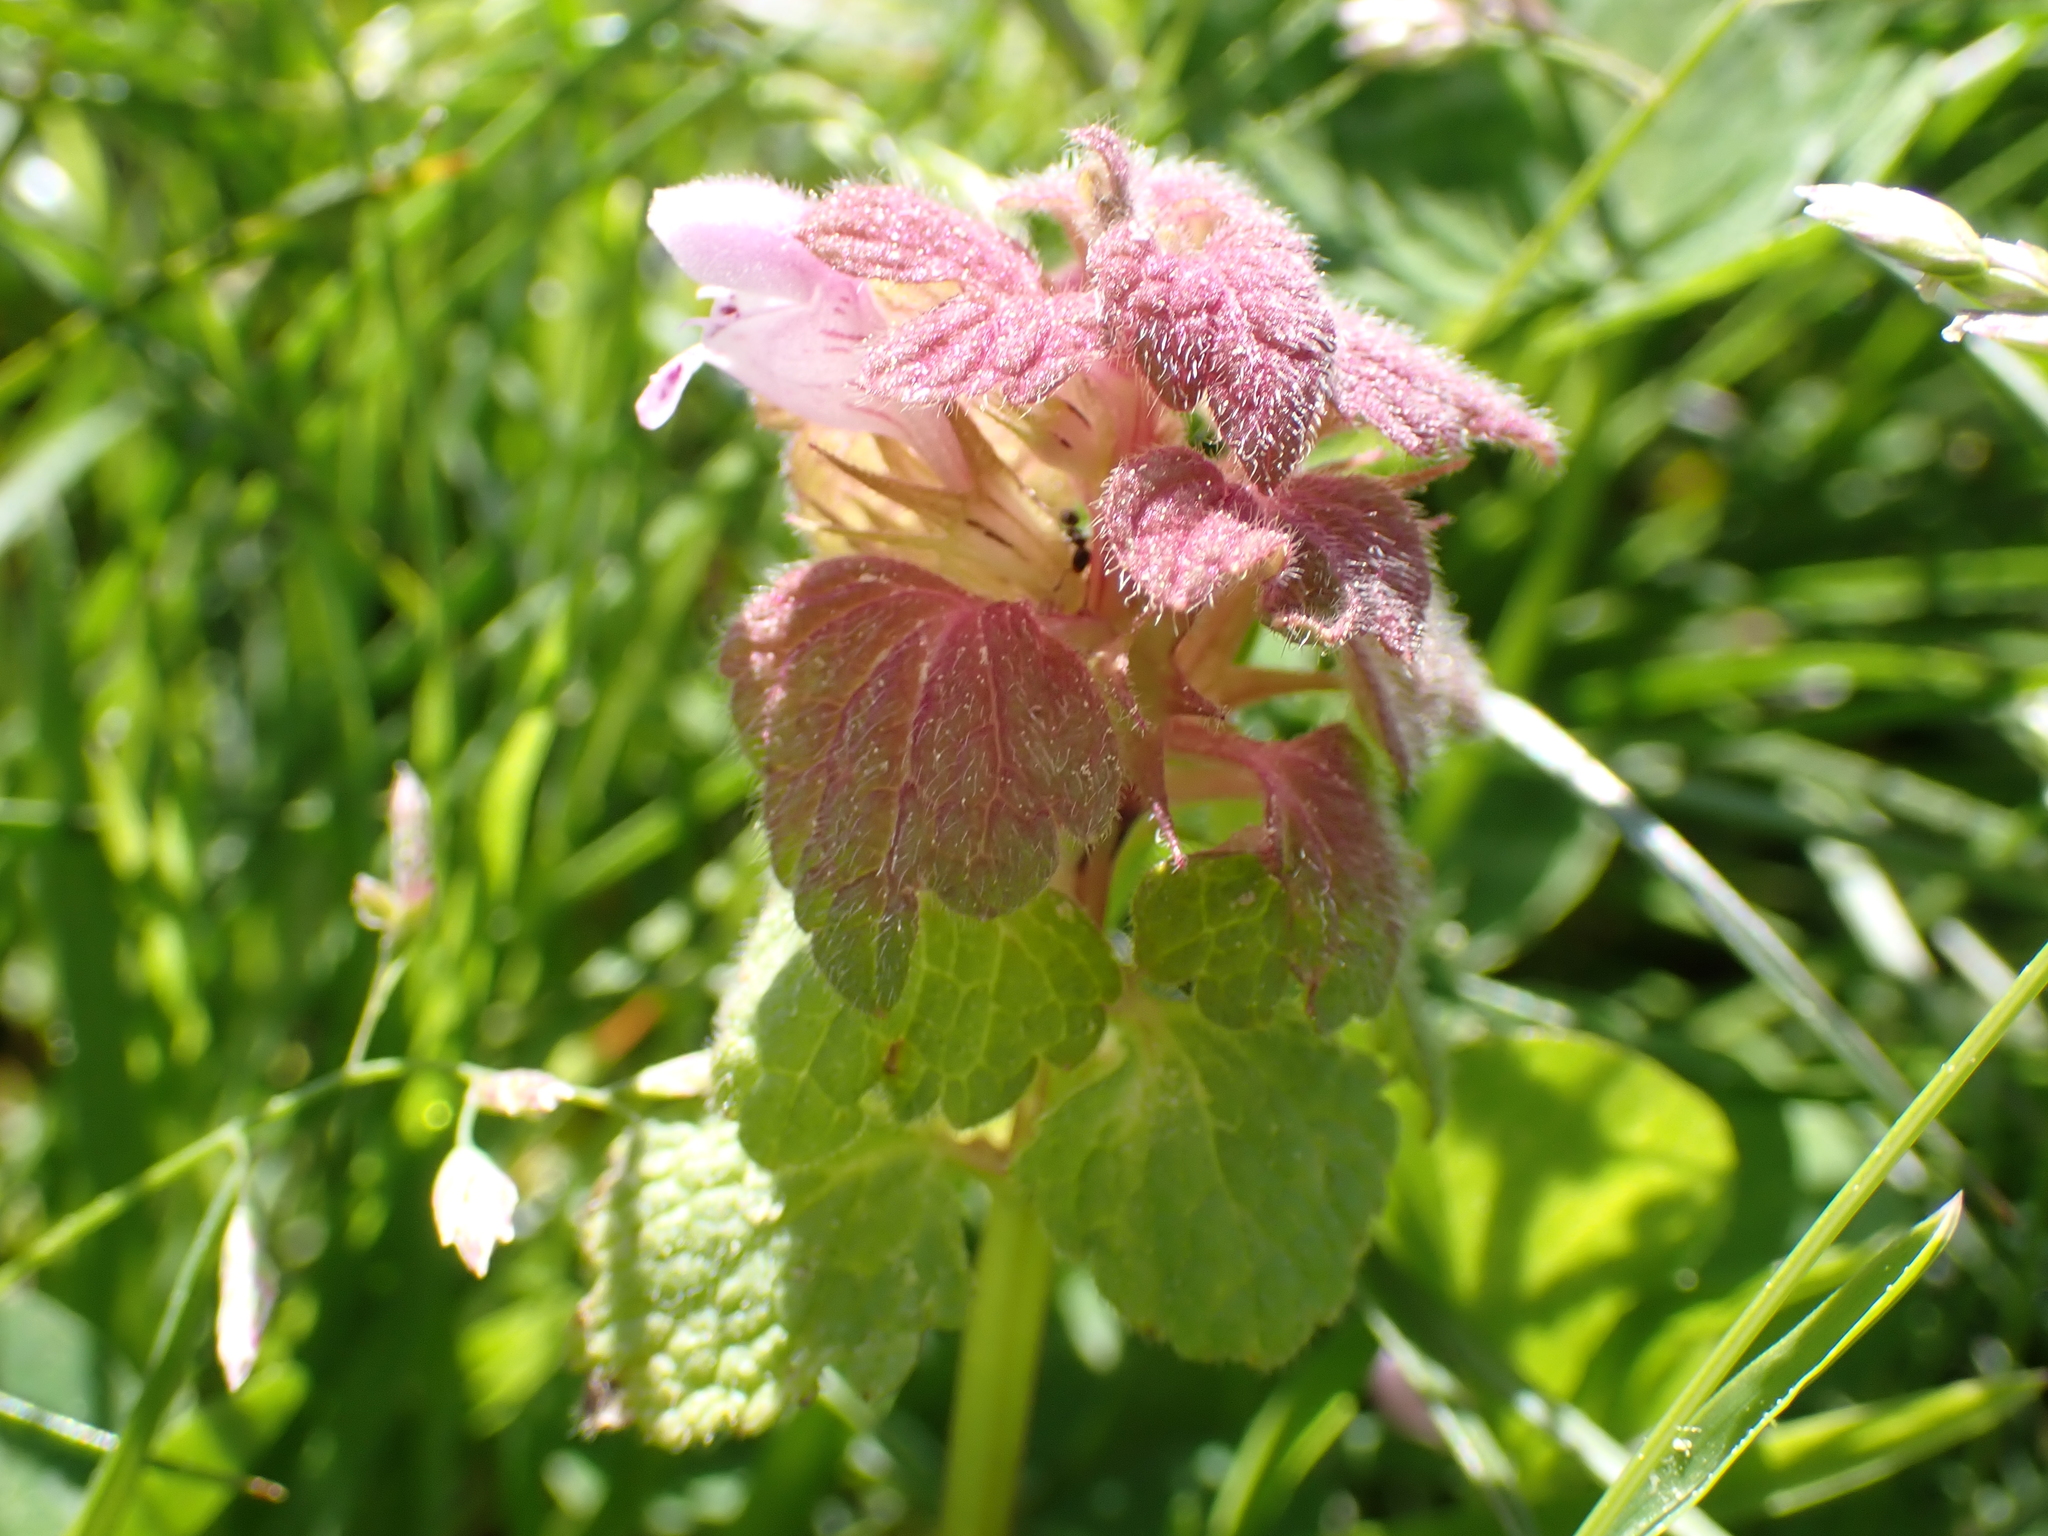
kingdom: Plantae
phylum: Tracheophyta
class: Magnoliopsida
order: Lamiales
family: Lamiaceae
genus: Lamium
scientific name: Lamium purpureum
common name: Red dead-nettle
